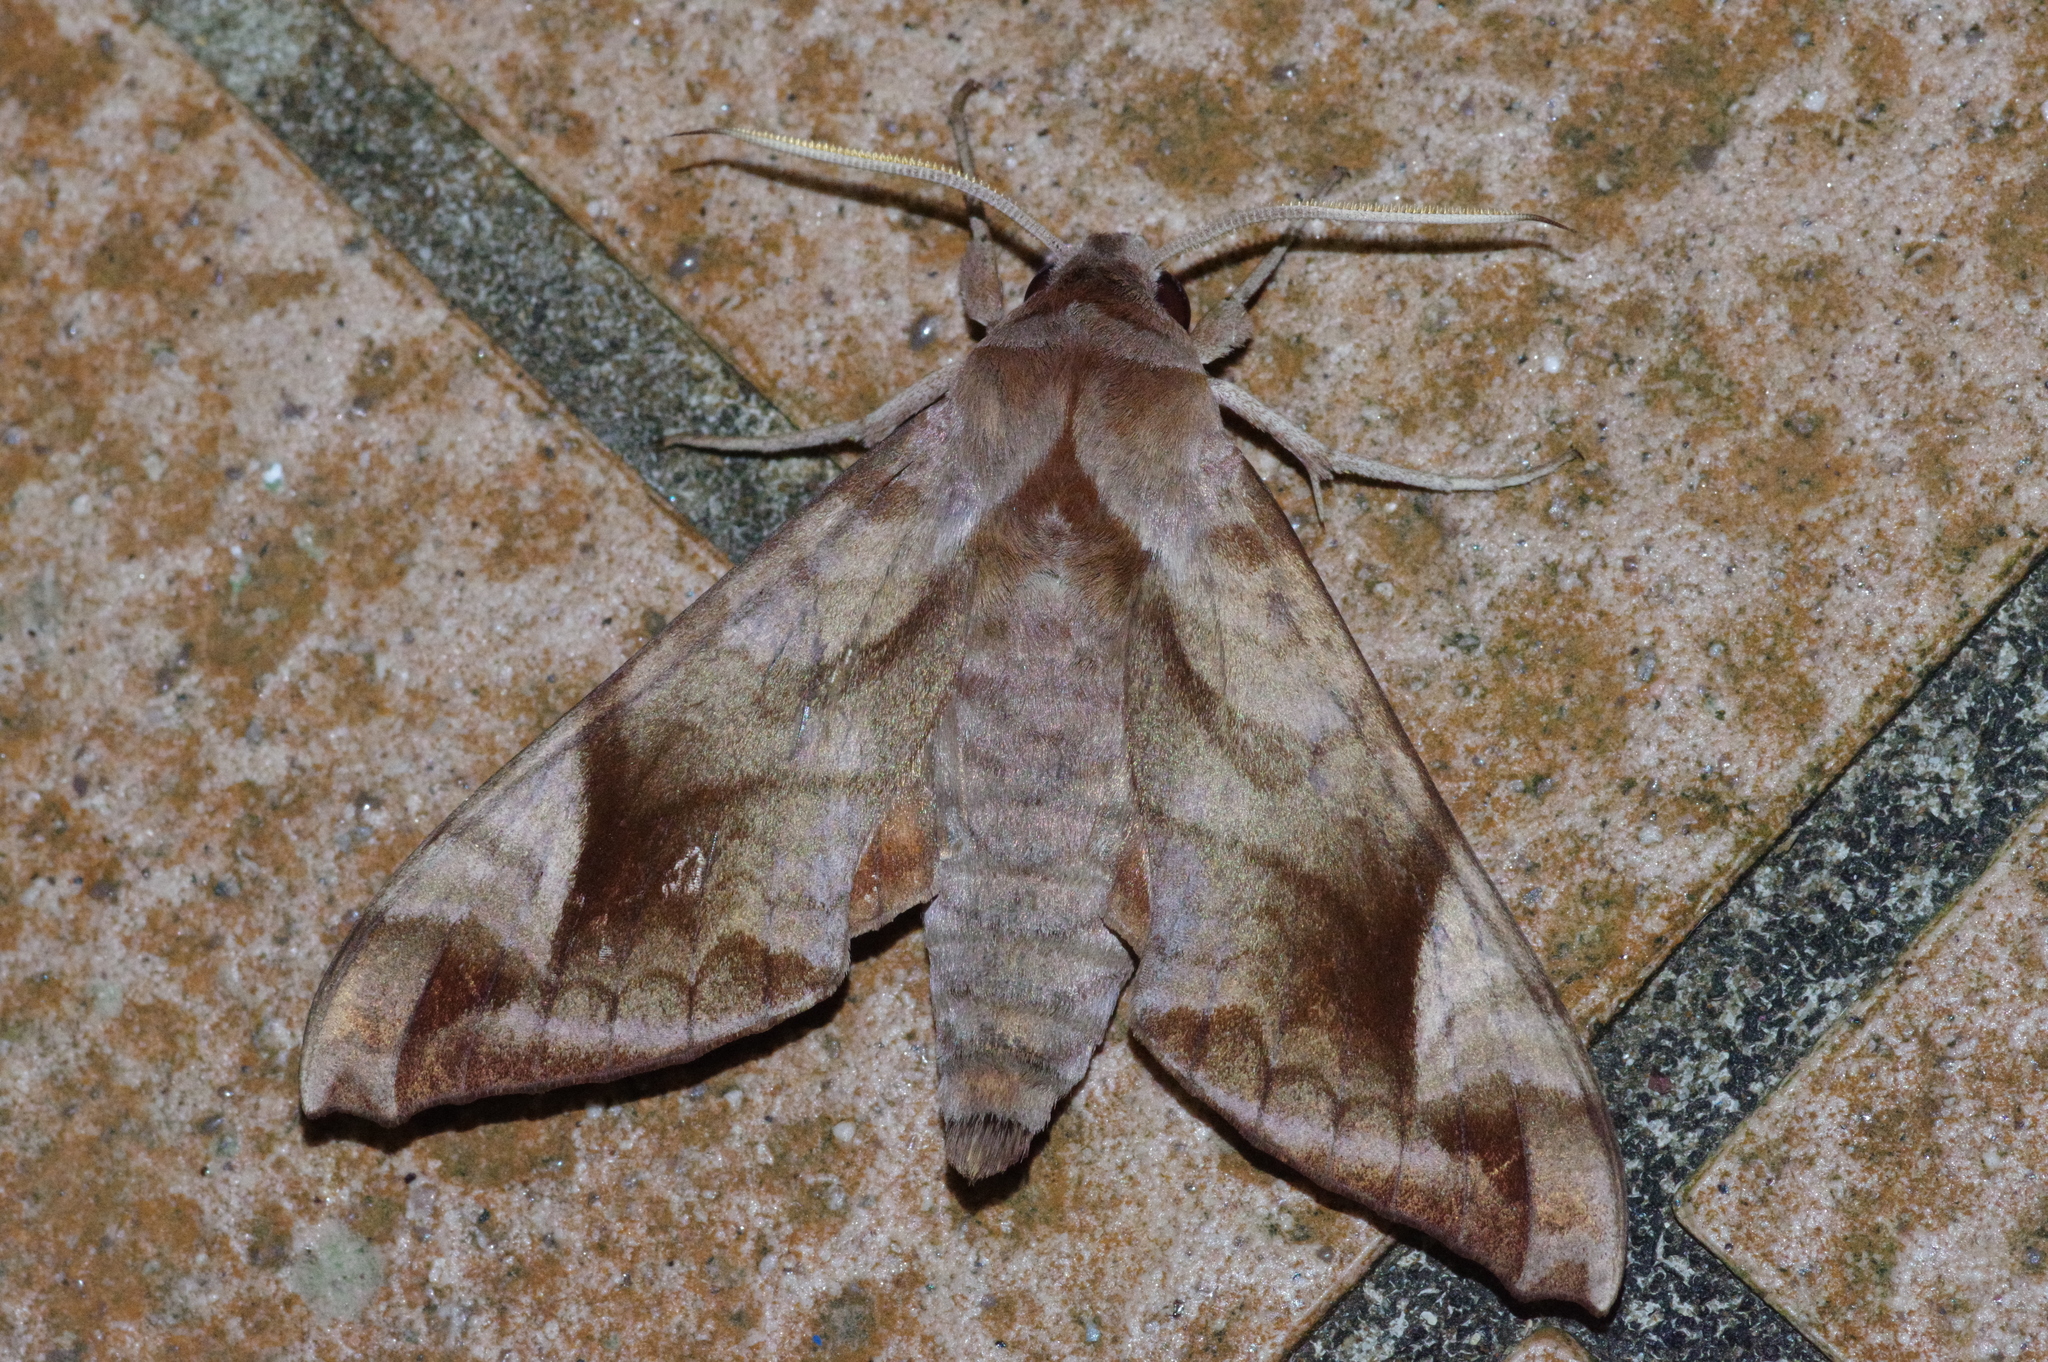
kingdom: Animalia
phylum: Arthropoda
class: Insecta
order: Lepidoptera
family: Sphingidae
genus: Acosmeryx
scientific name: Acosmeryx naga
